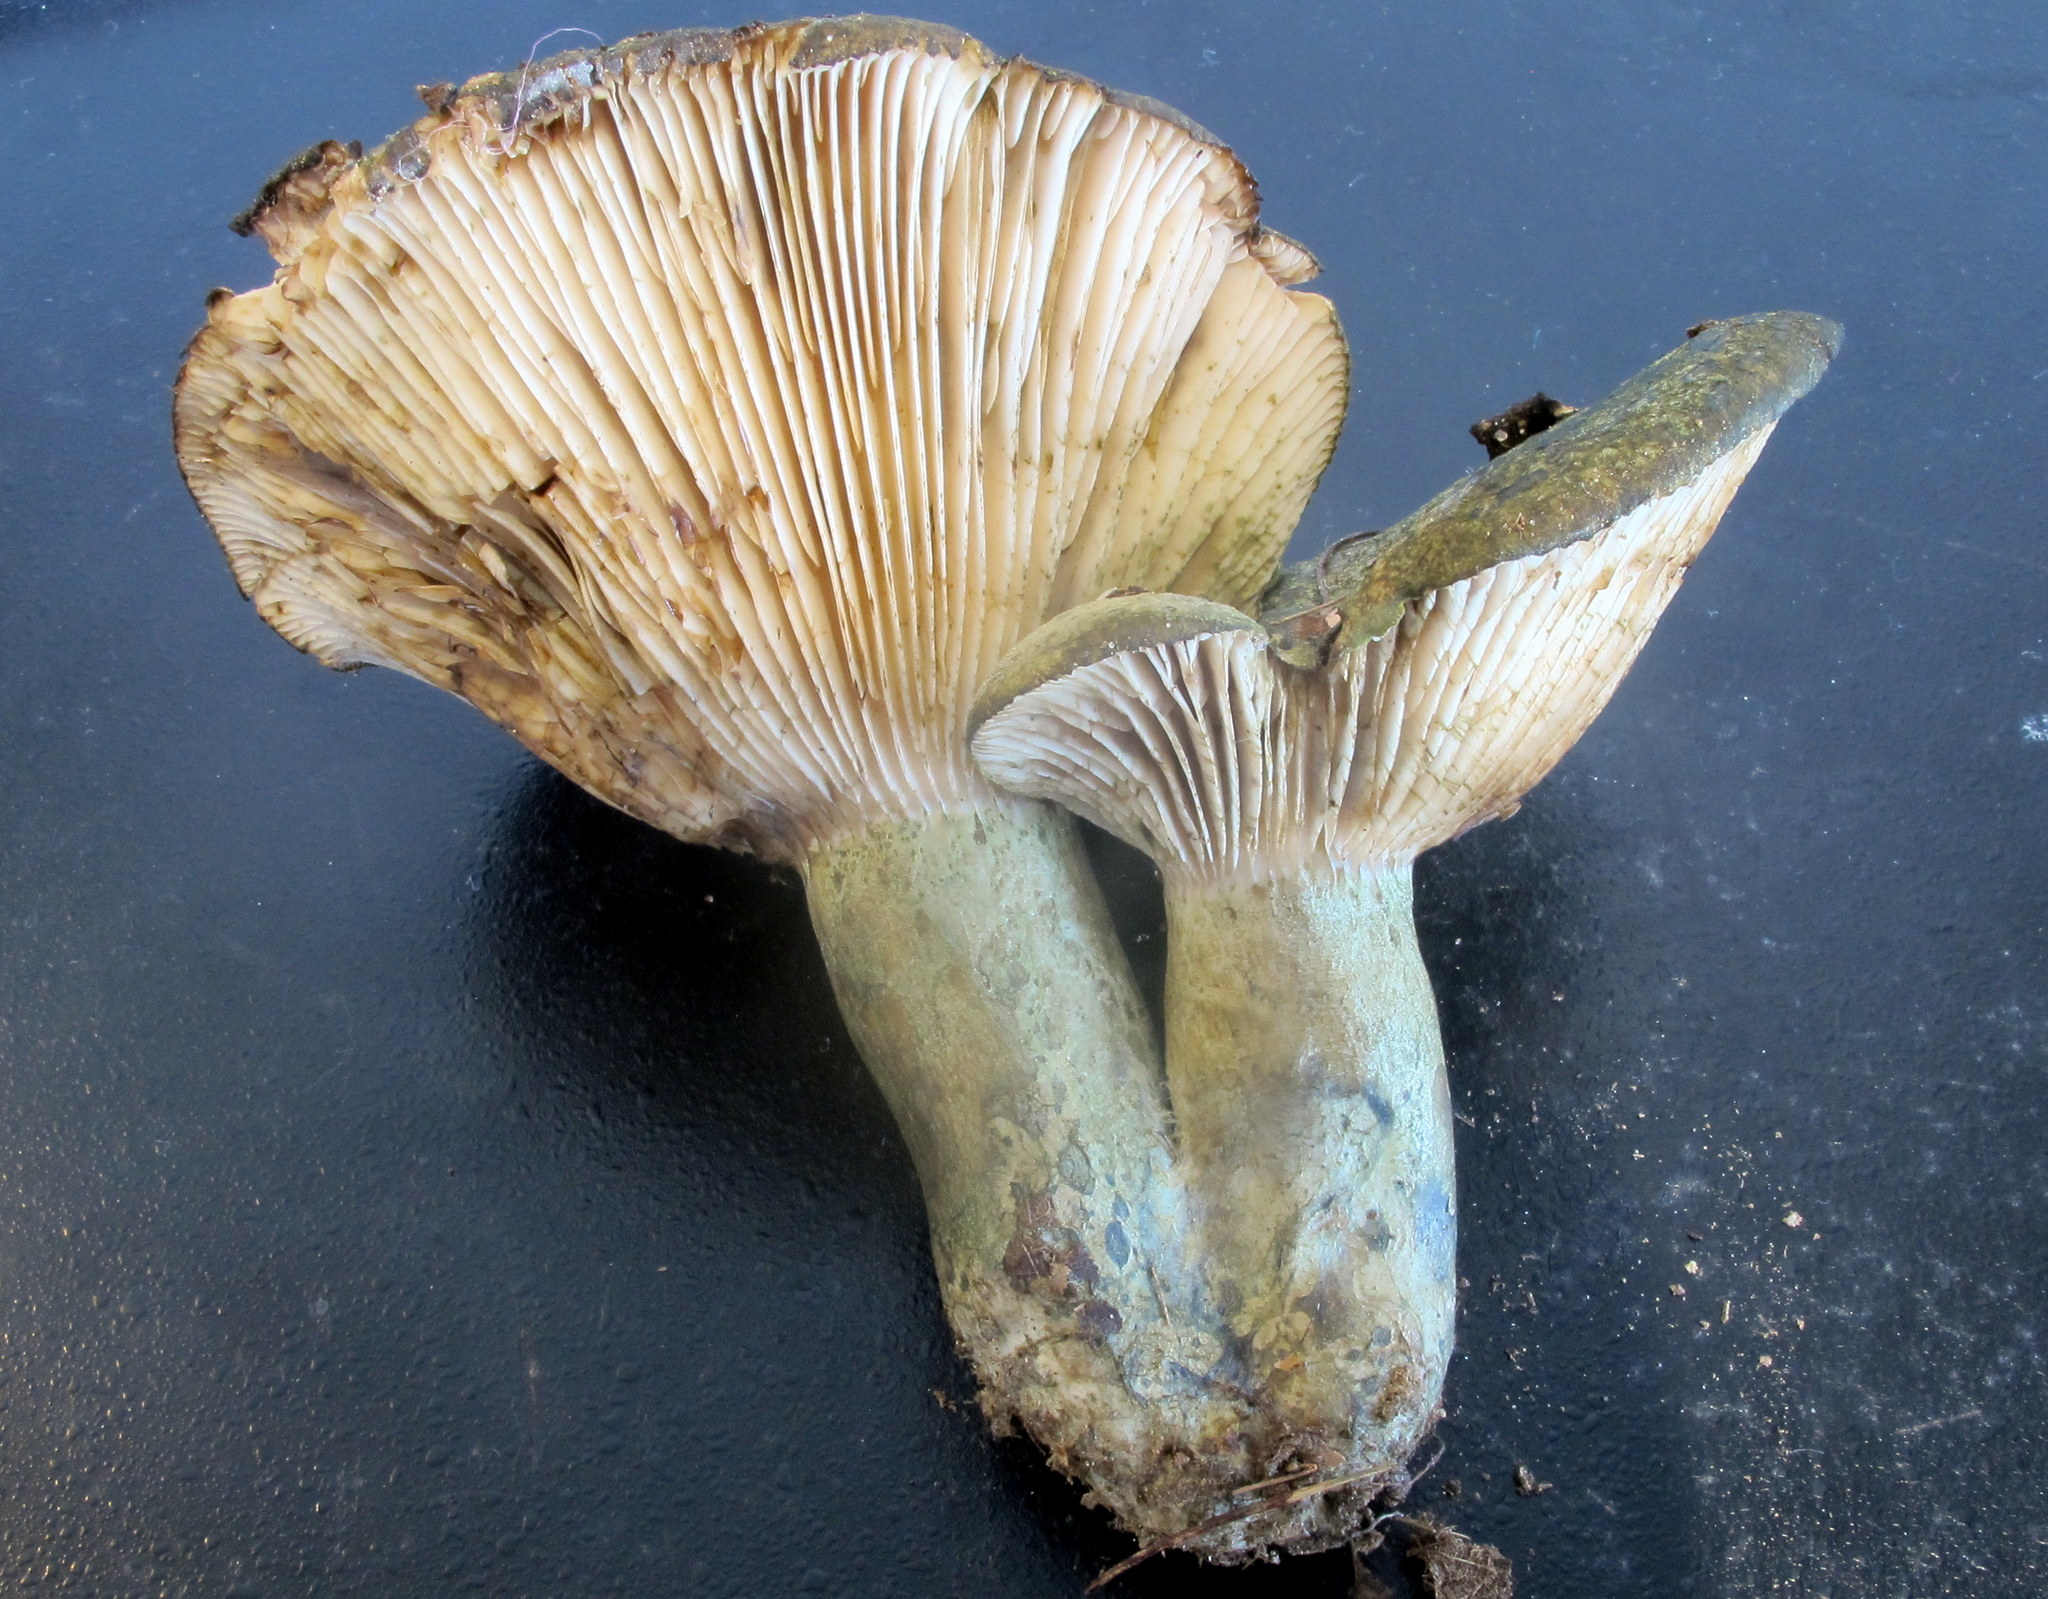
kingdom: Fungi
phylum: Basidiomycota
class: Agaricomycetes
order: Russulales
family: Russulaceae
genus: Lactarius
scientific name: Lactarius atroviridis
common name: Dark-spotted milkcap
